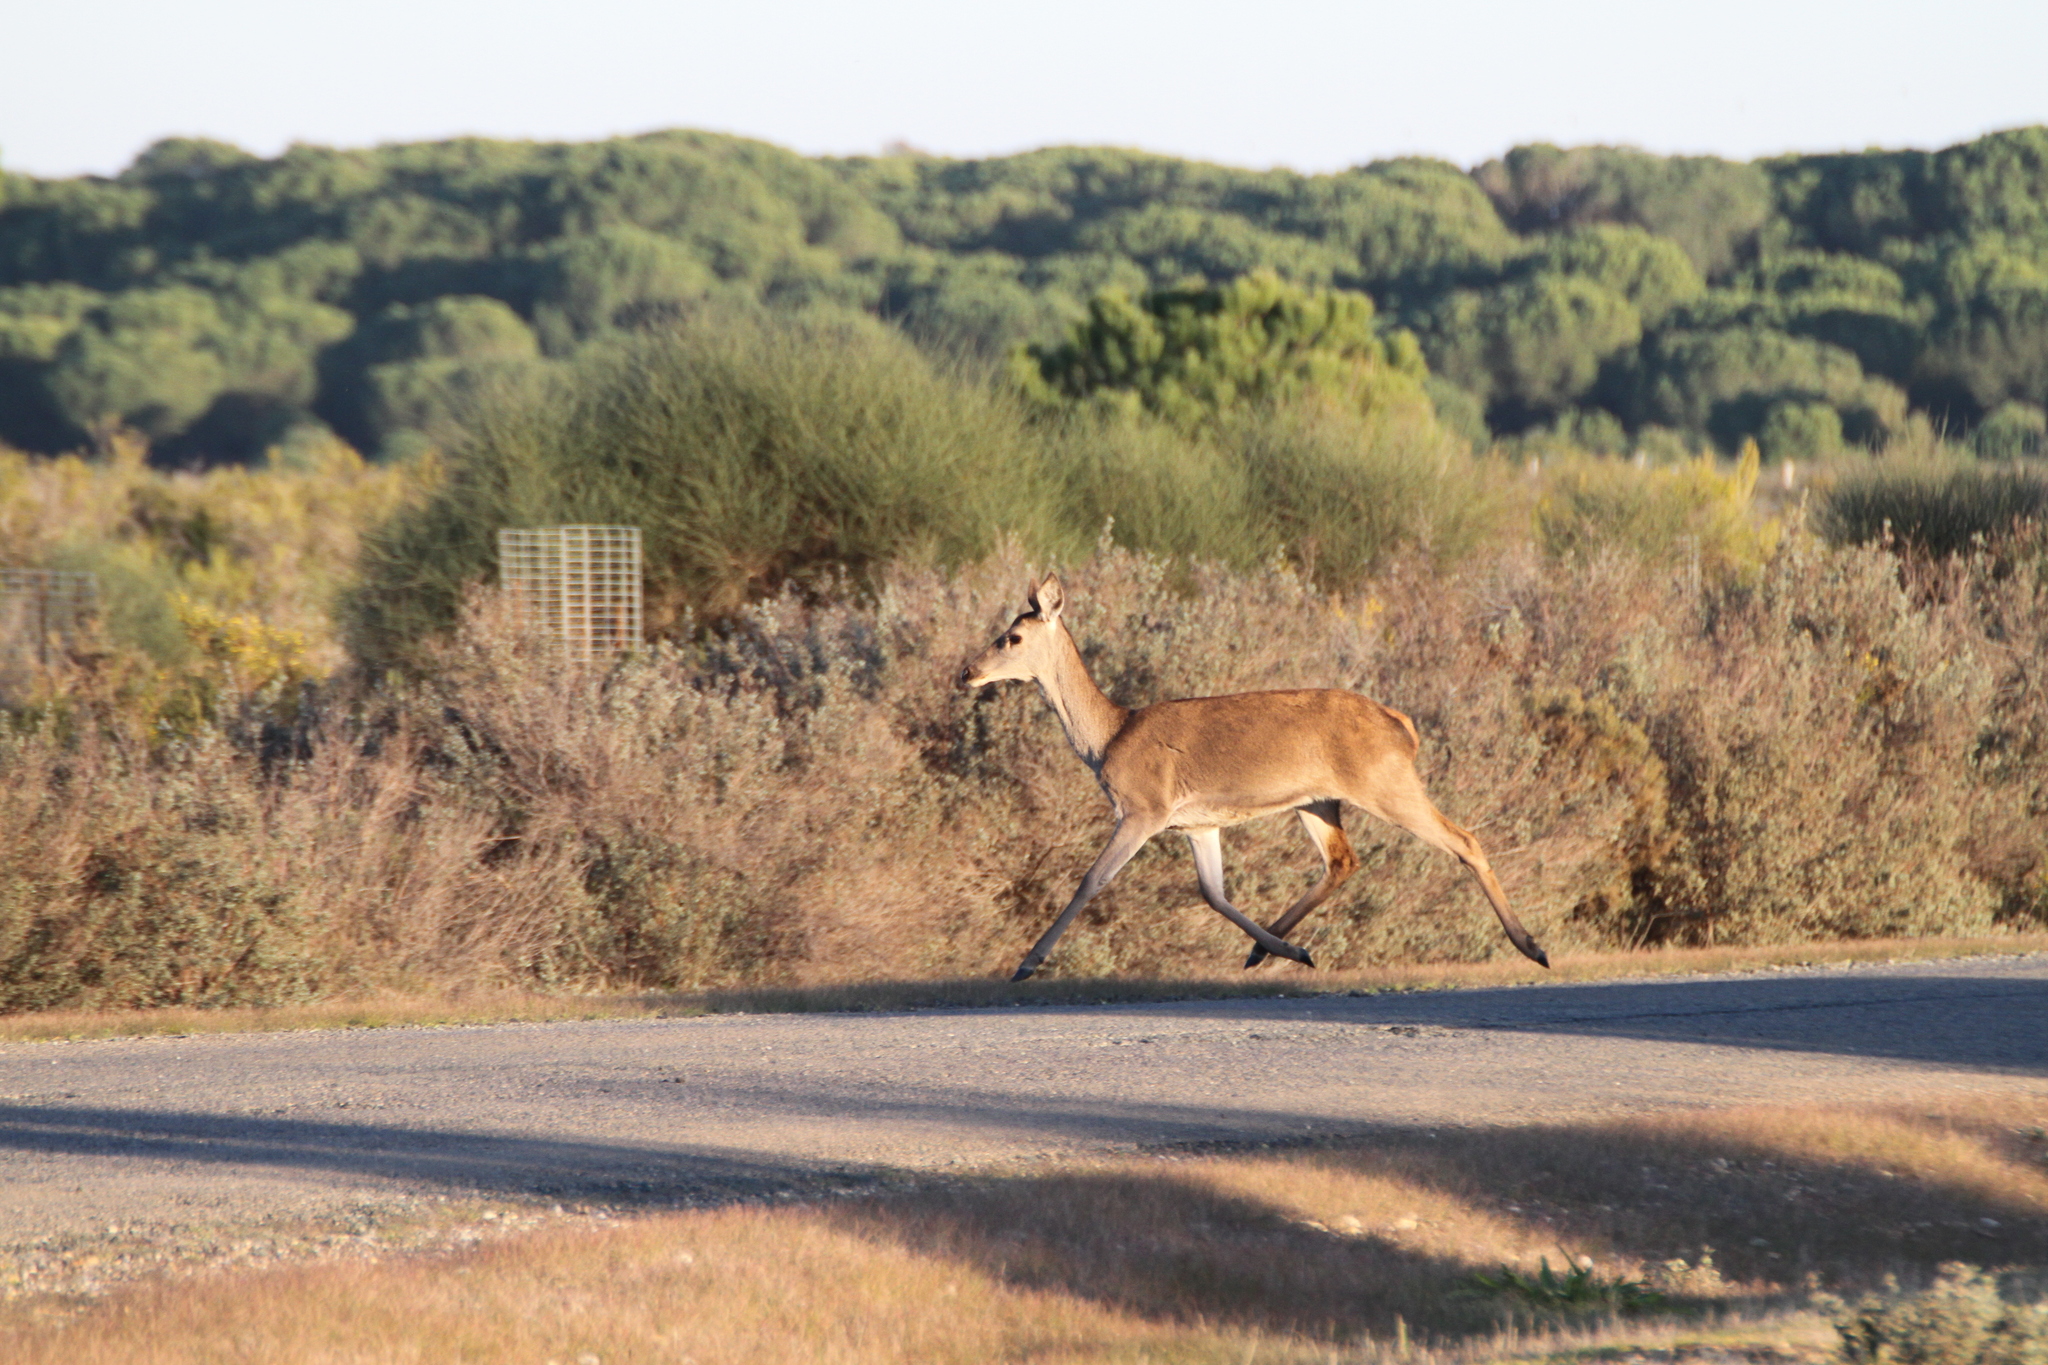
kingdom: Animalia
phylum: Chordata
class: Mammalia
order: Artiodactyla
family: Cervidae
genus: Cervus
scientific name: Cervus elaphus
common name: Red deer
